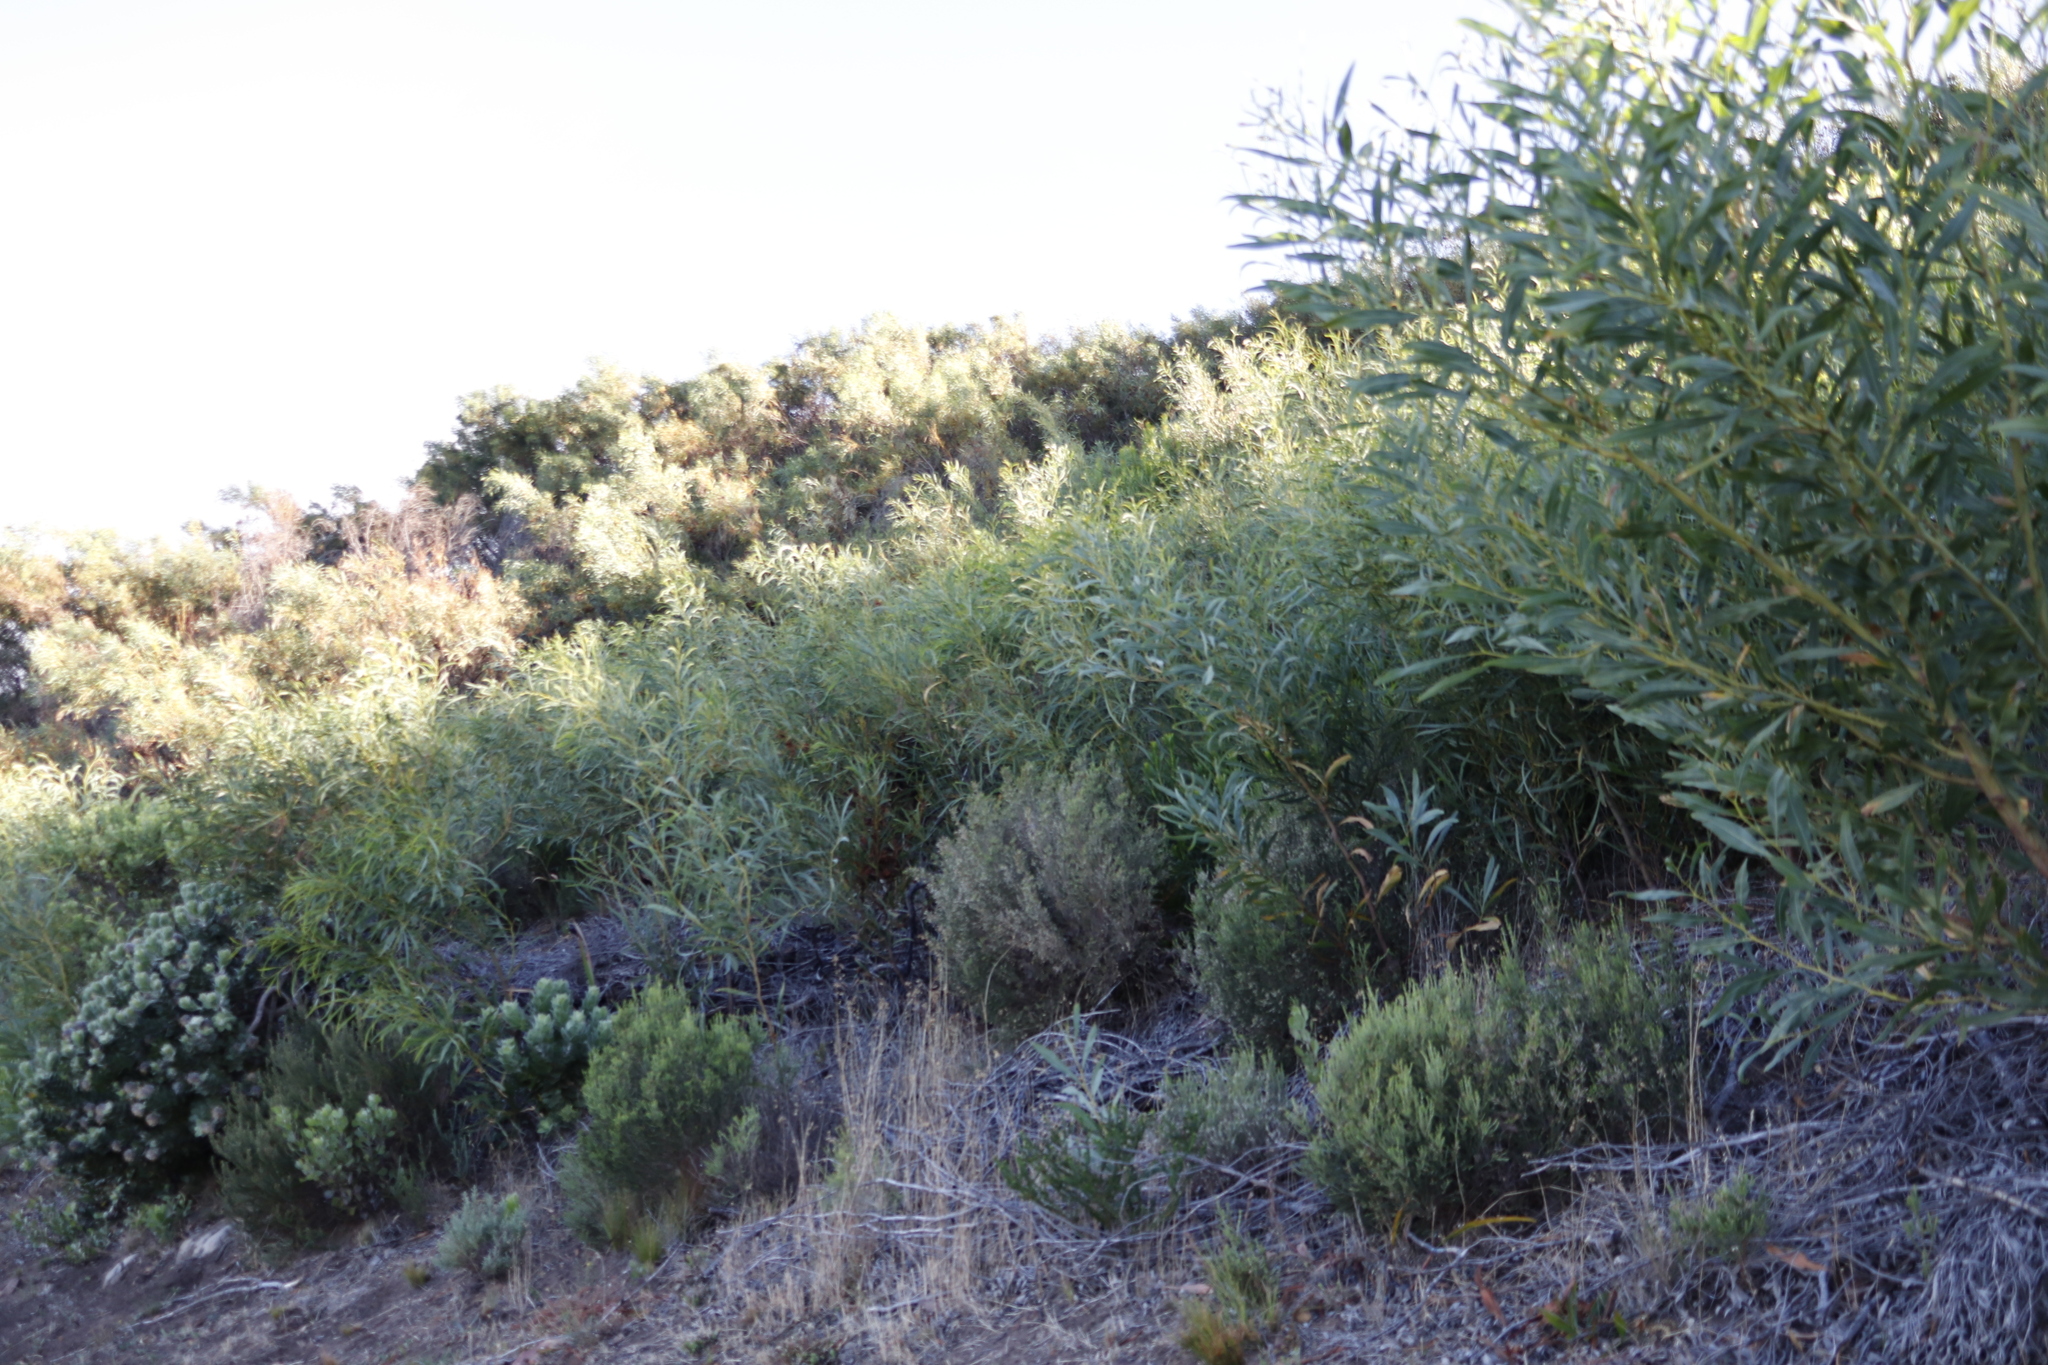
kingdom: Plantae
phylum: Tracheophyta
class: Magnoliopsida
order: Fabales
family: Fabaceae
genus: Acacia
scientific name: Acacia saligna
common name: Orange wattle
